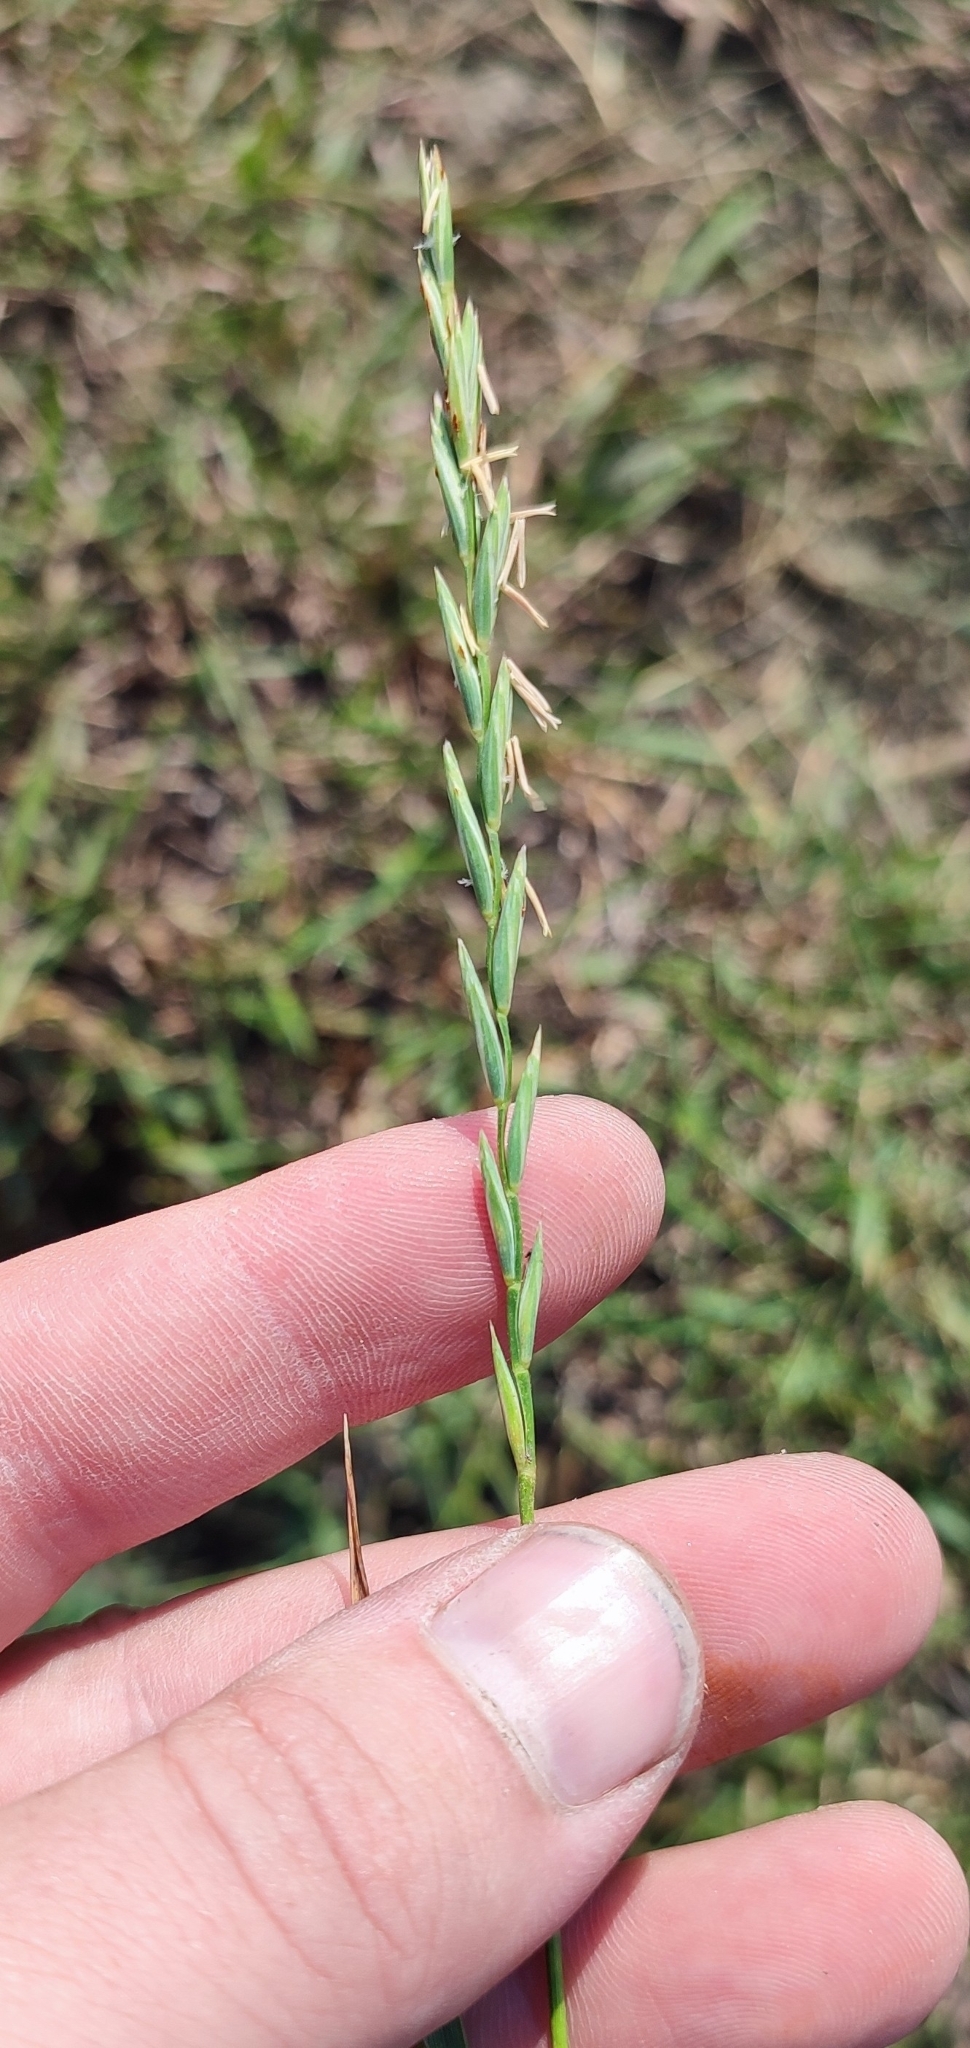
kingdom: Plantae
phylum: Tracheophyta
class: Liliopsida
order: Poales
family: Poaceae
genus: Elymus
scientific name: Elymus repens
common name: Quackgrass
